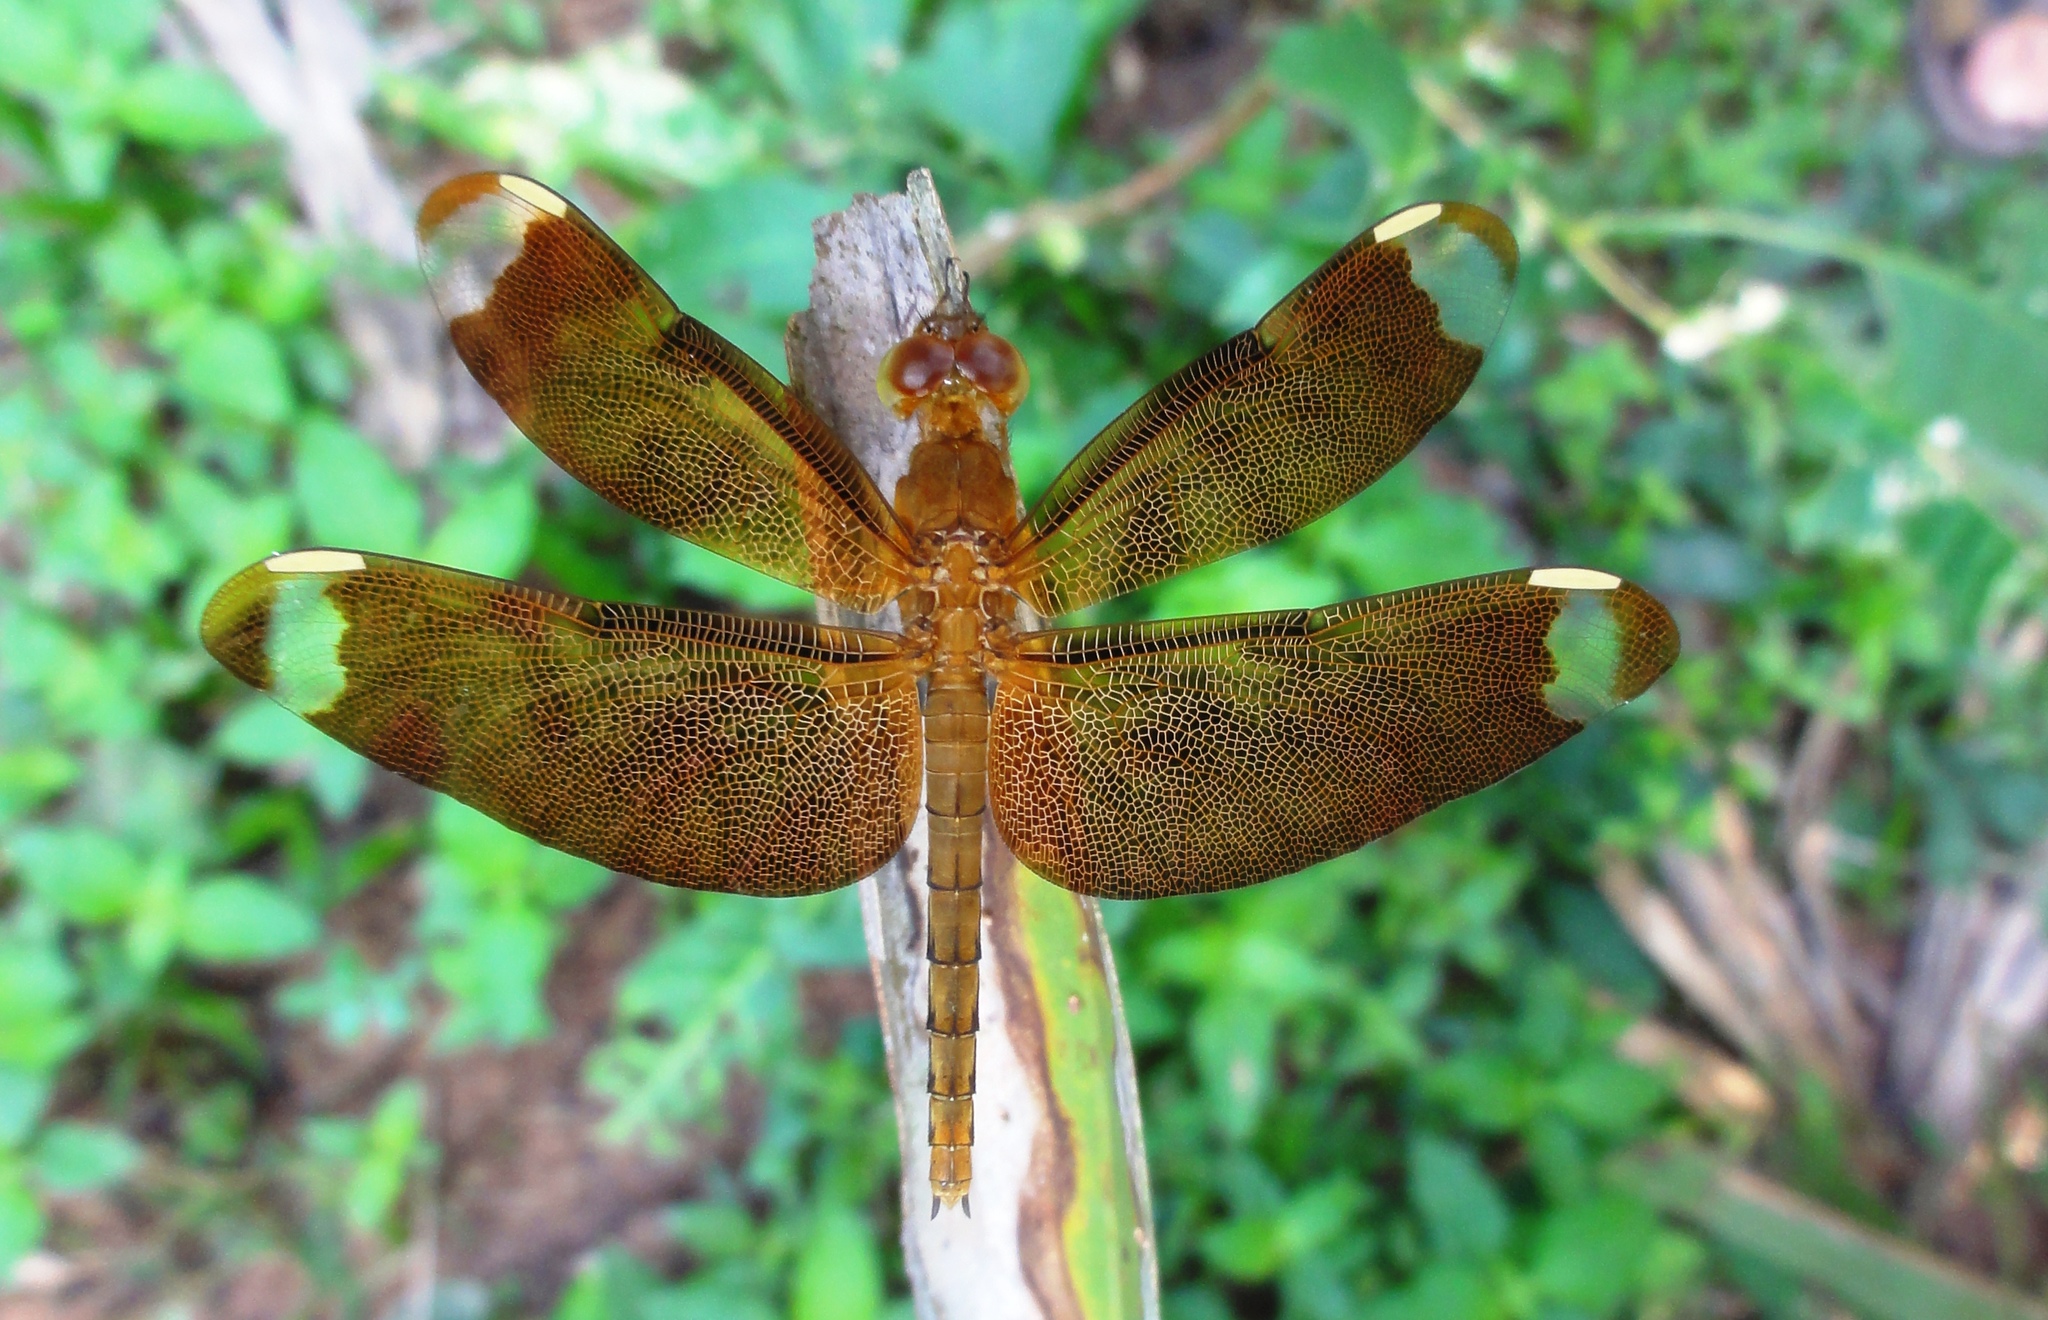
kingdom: Animalia
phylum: Arthropoda
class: Insecta
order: Odonata
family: Libellulidae
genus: Neurothemis
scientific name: Neurothemis fulvia
